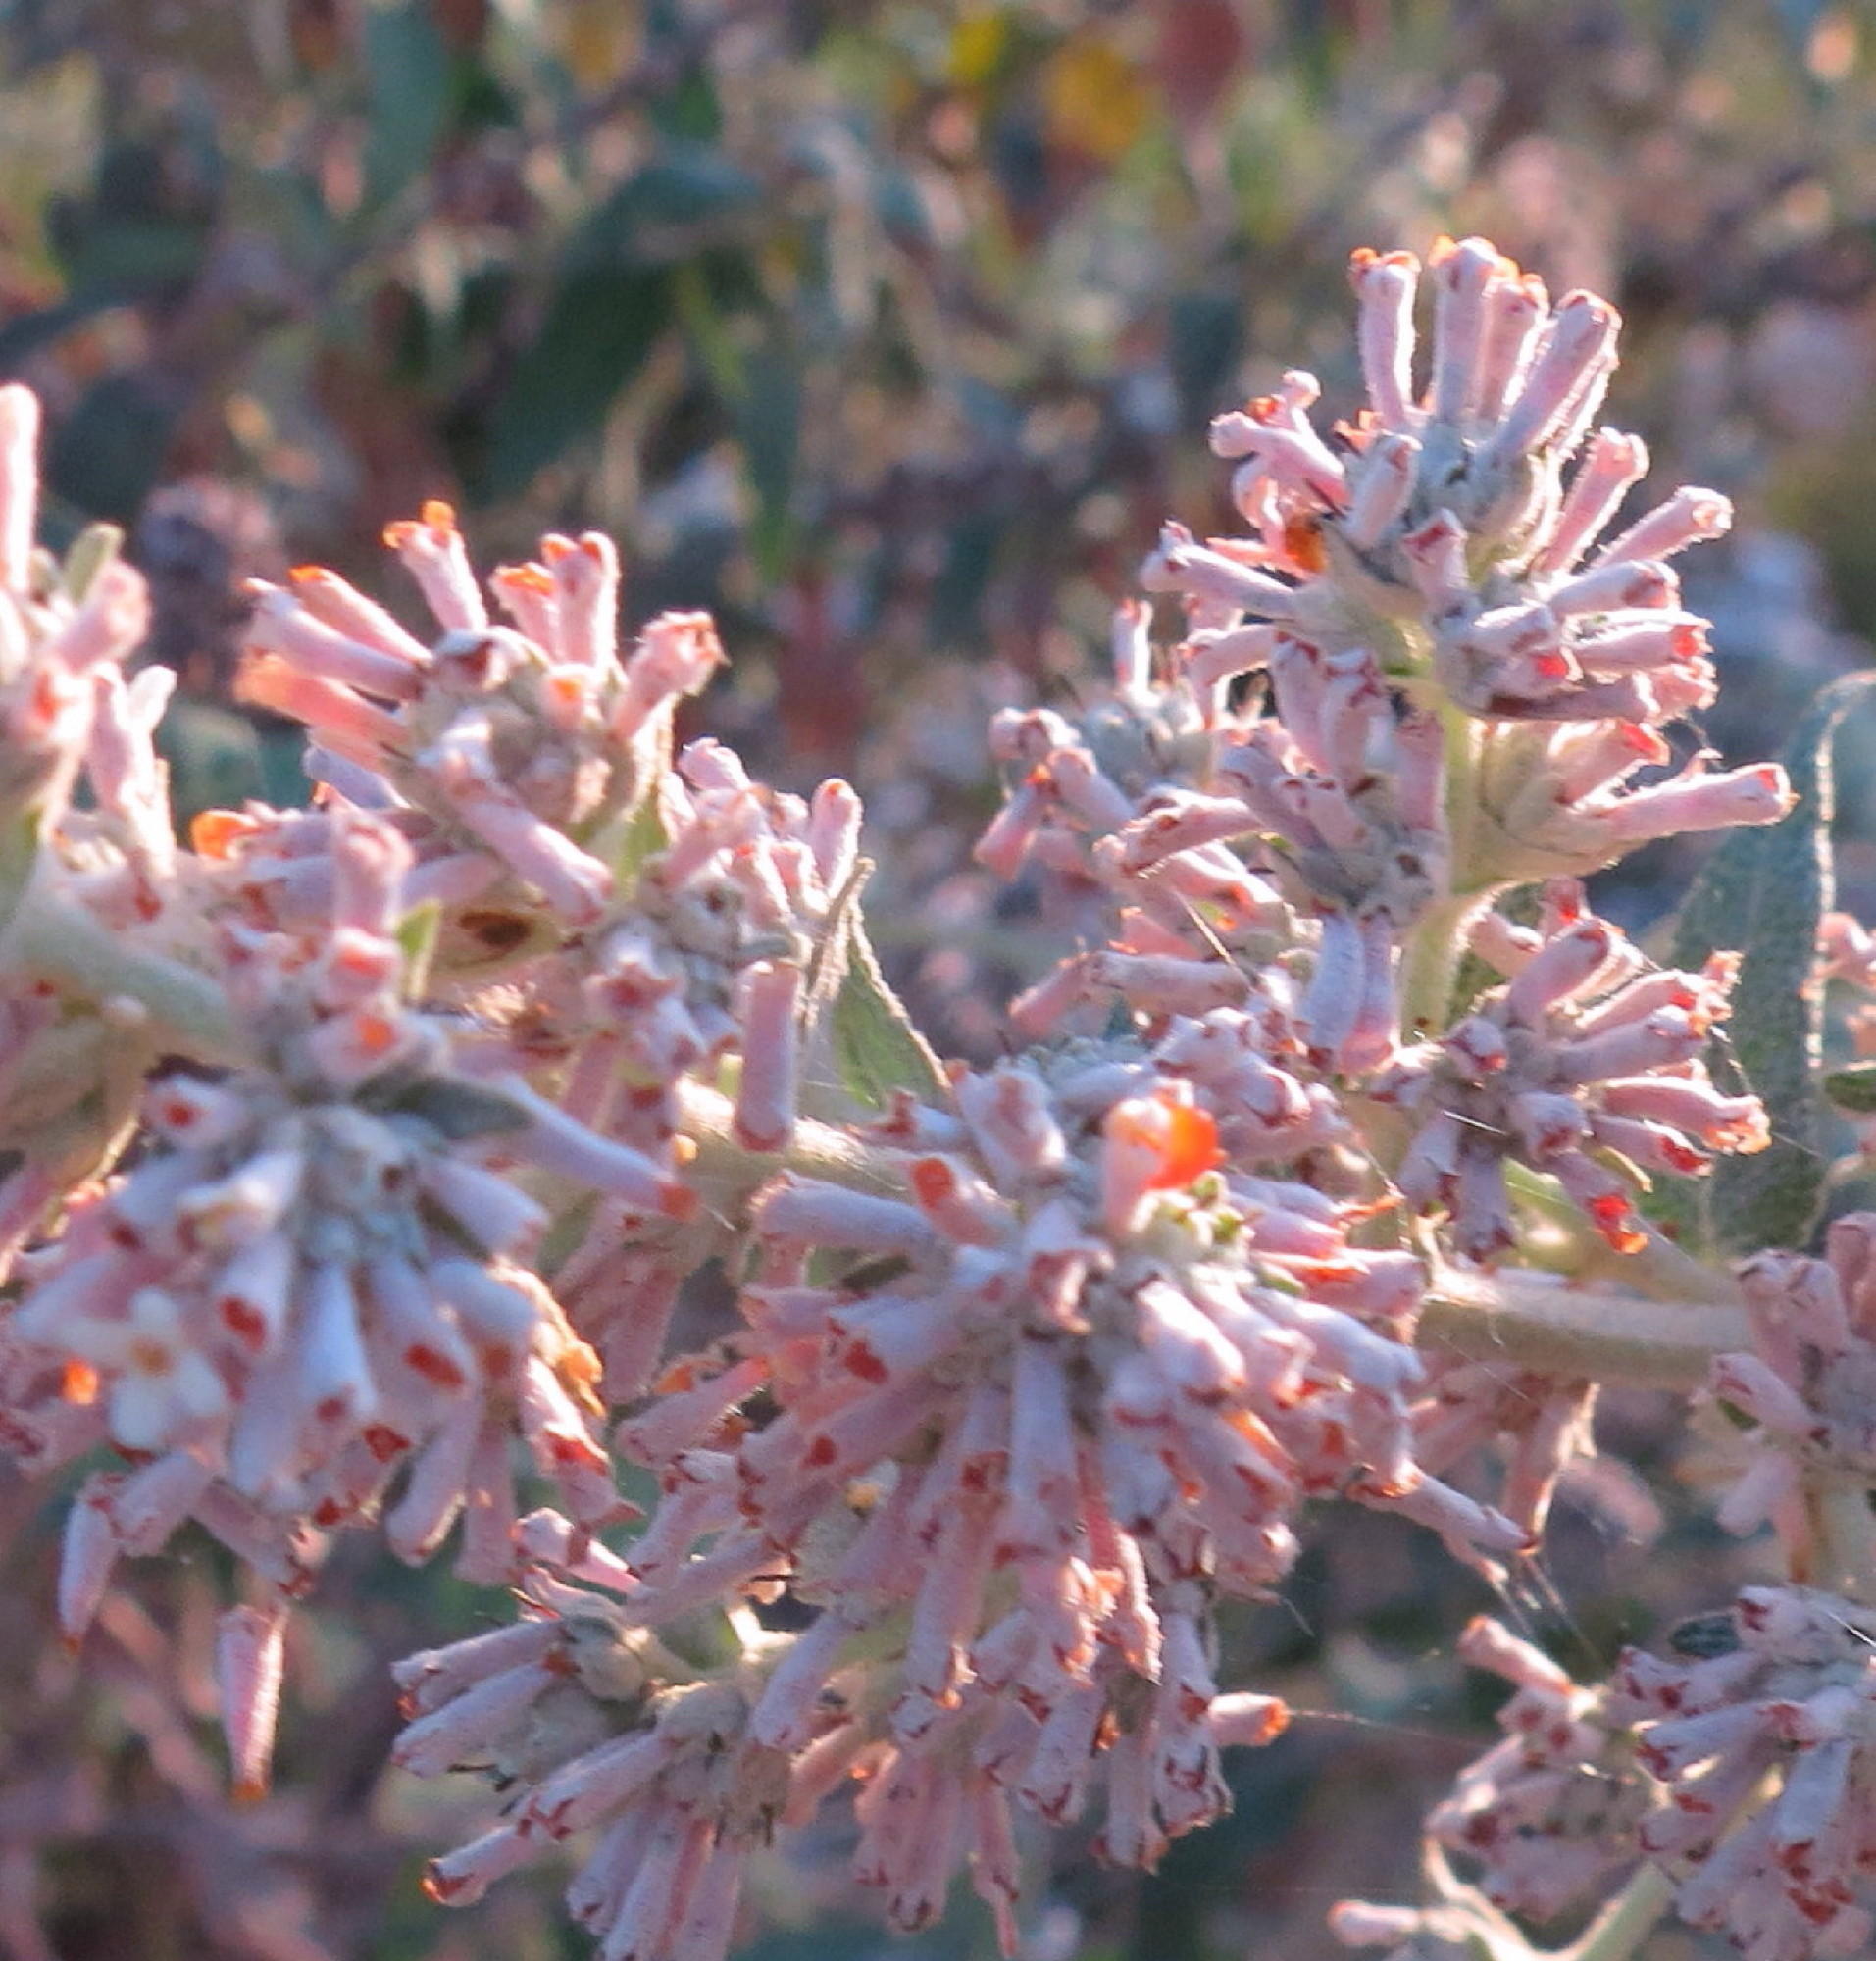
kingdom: Plantae
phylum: Tracheophyta
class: Magnoliopsida
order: Lamiales
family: Scrophulariaceae
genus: Buddleja
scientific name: Buddleja salviifolia
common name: Sagewood
